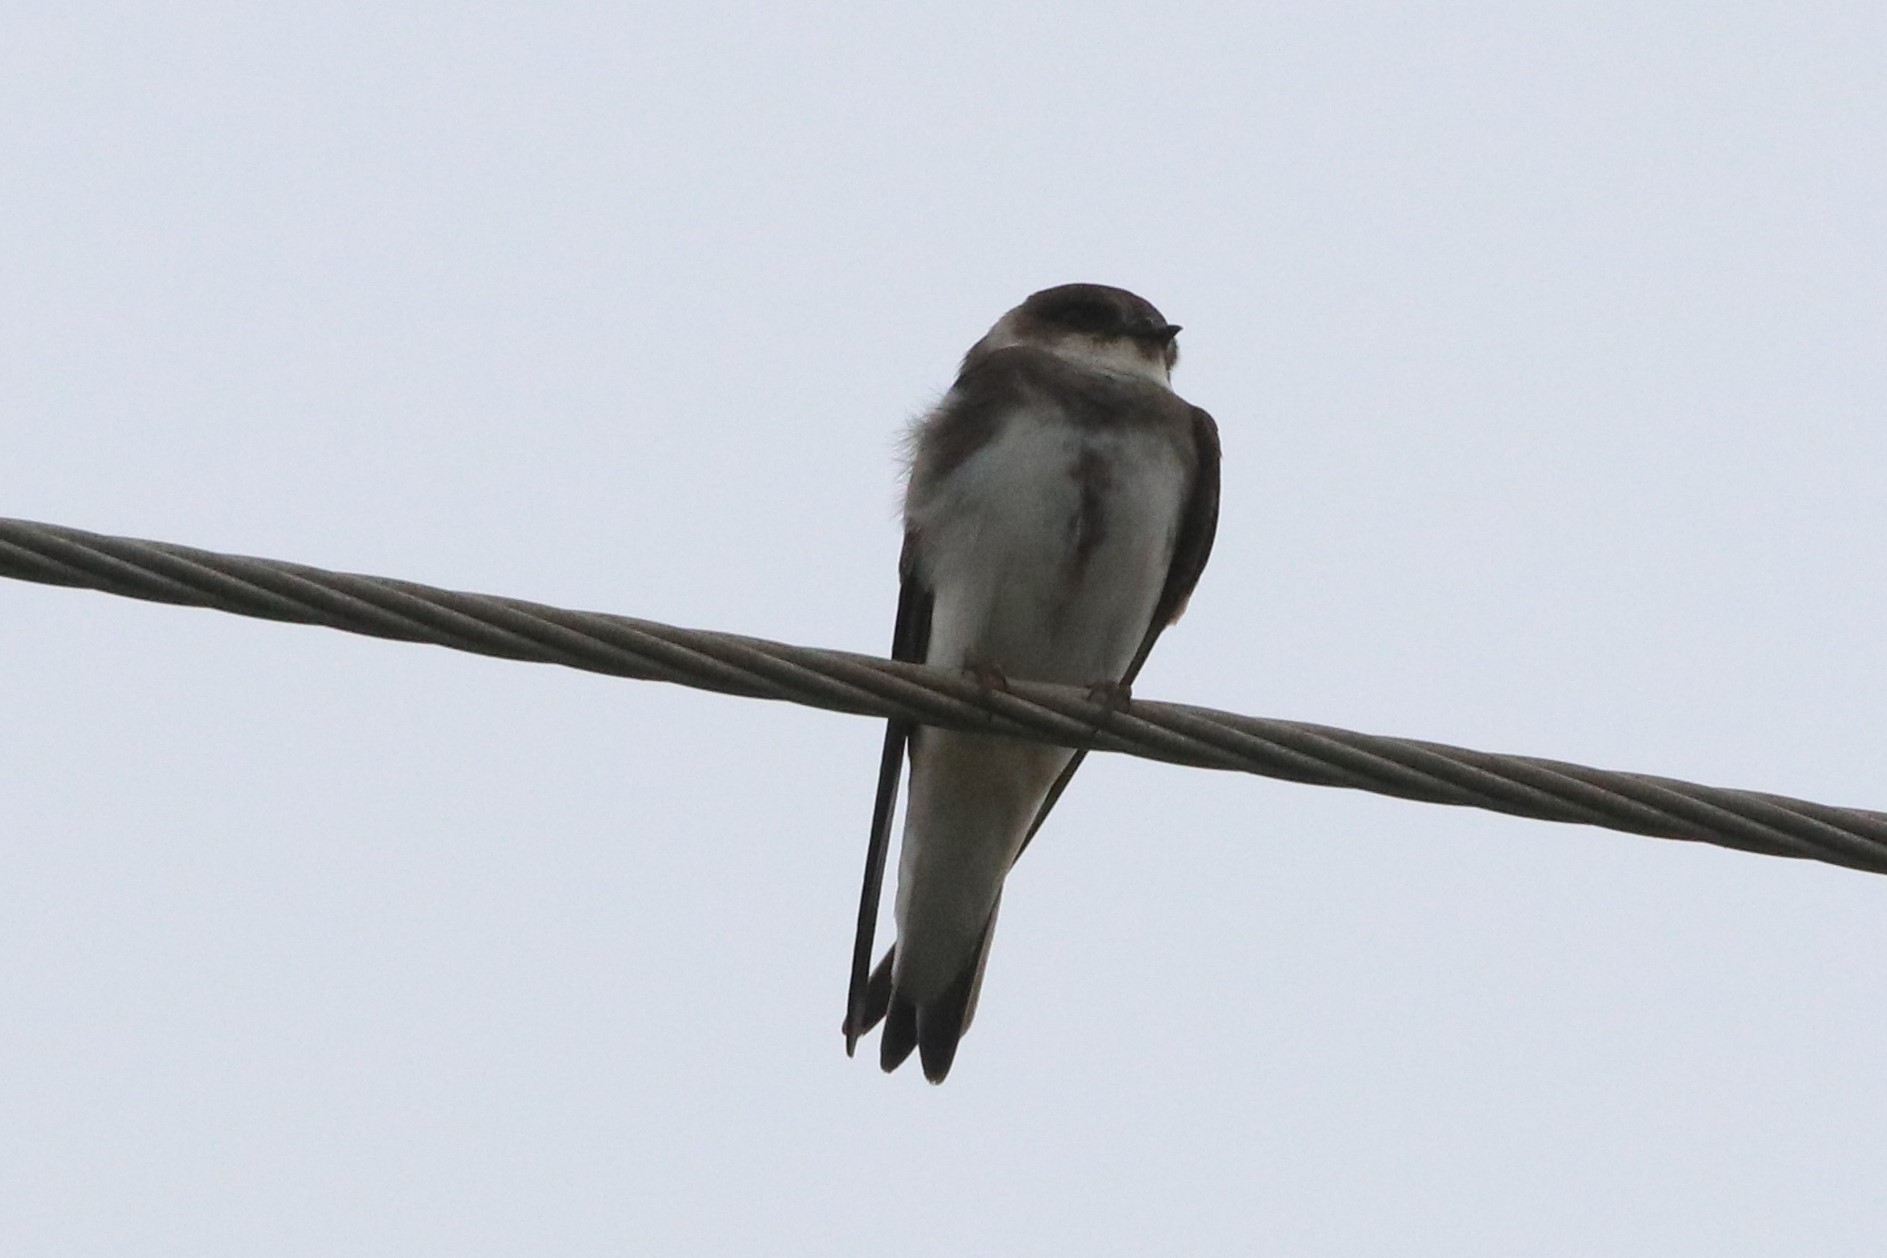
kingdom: Animalia
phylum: Chordata
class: Aves
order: Passeriformes
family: Hirundinidae
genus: Riparia
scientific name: Riparia riparia
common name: Sand martin
